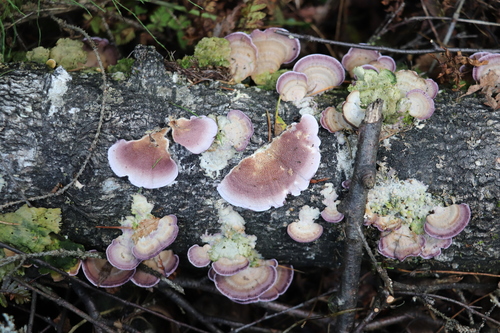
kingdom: Fungi
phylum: Basidiomycota
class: Agaricomycetes
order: Hymenochaetales
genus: Trichaptum
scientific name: Trichaptum biforme
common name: Violet-toothed polypore
